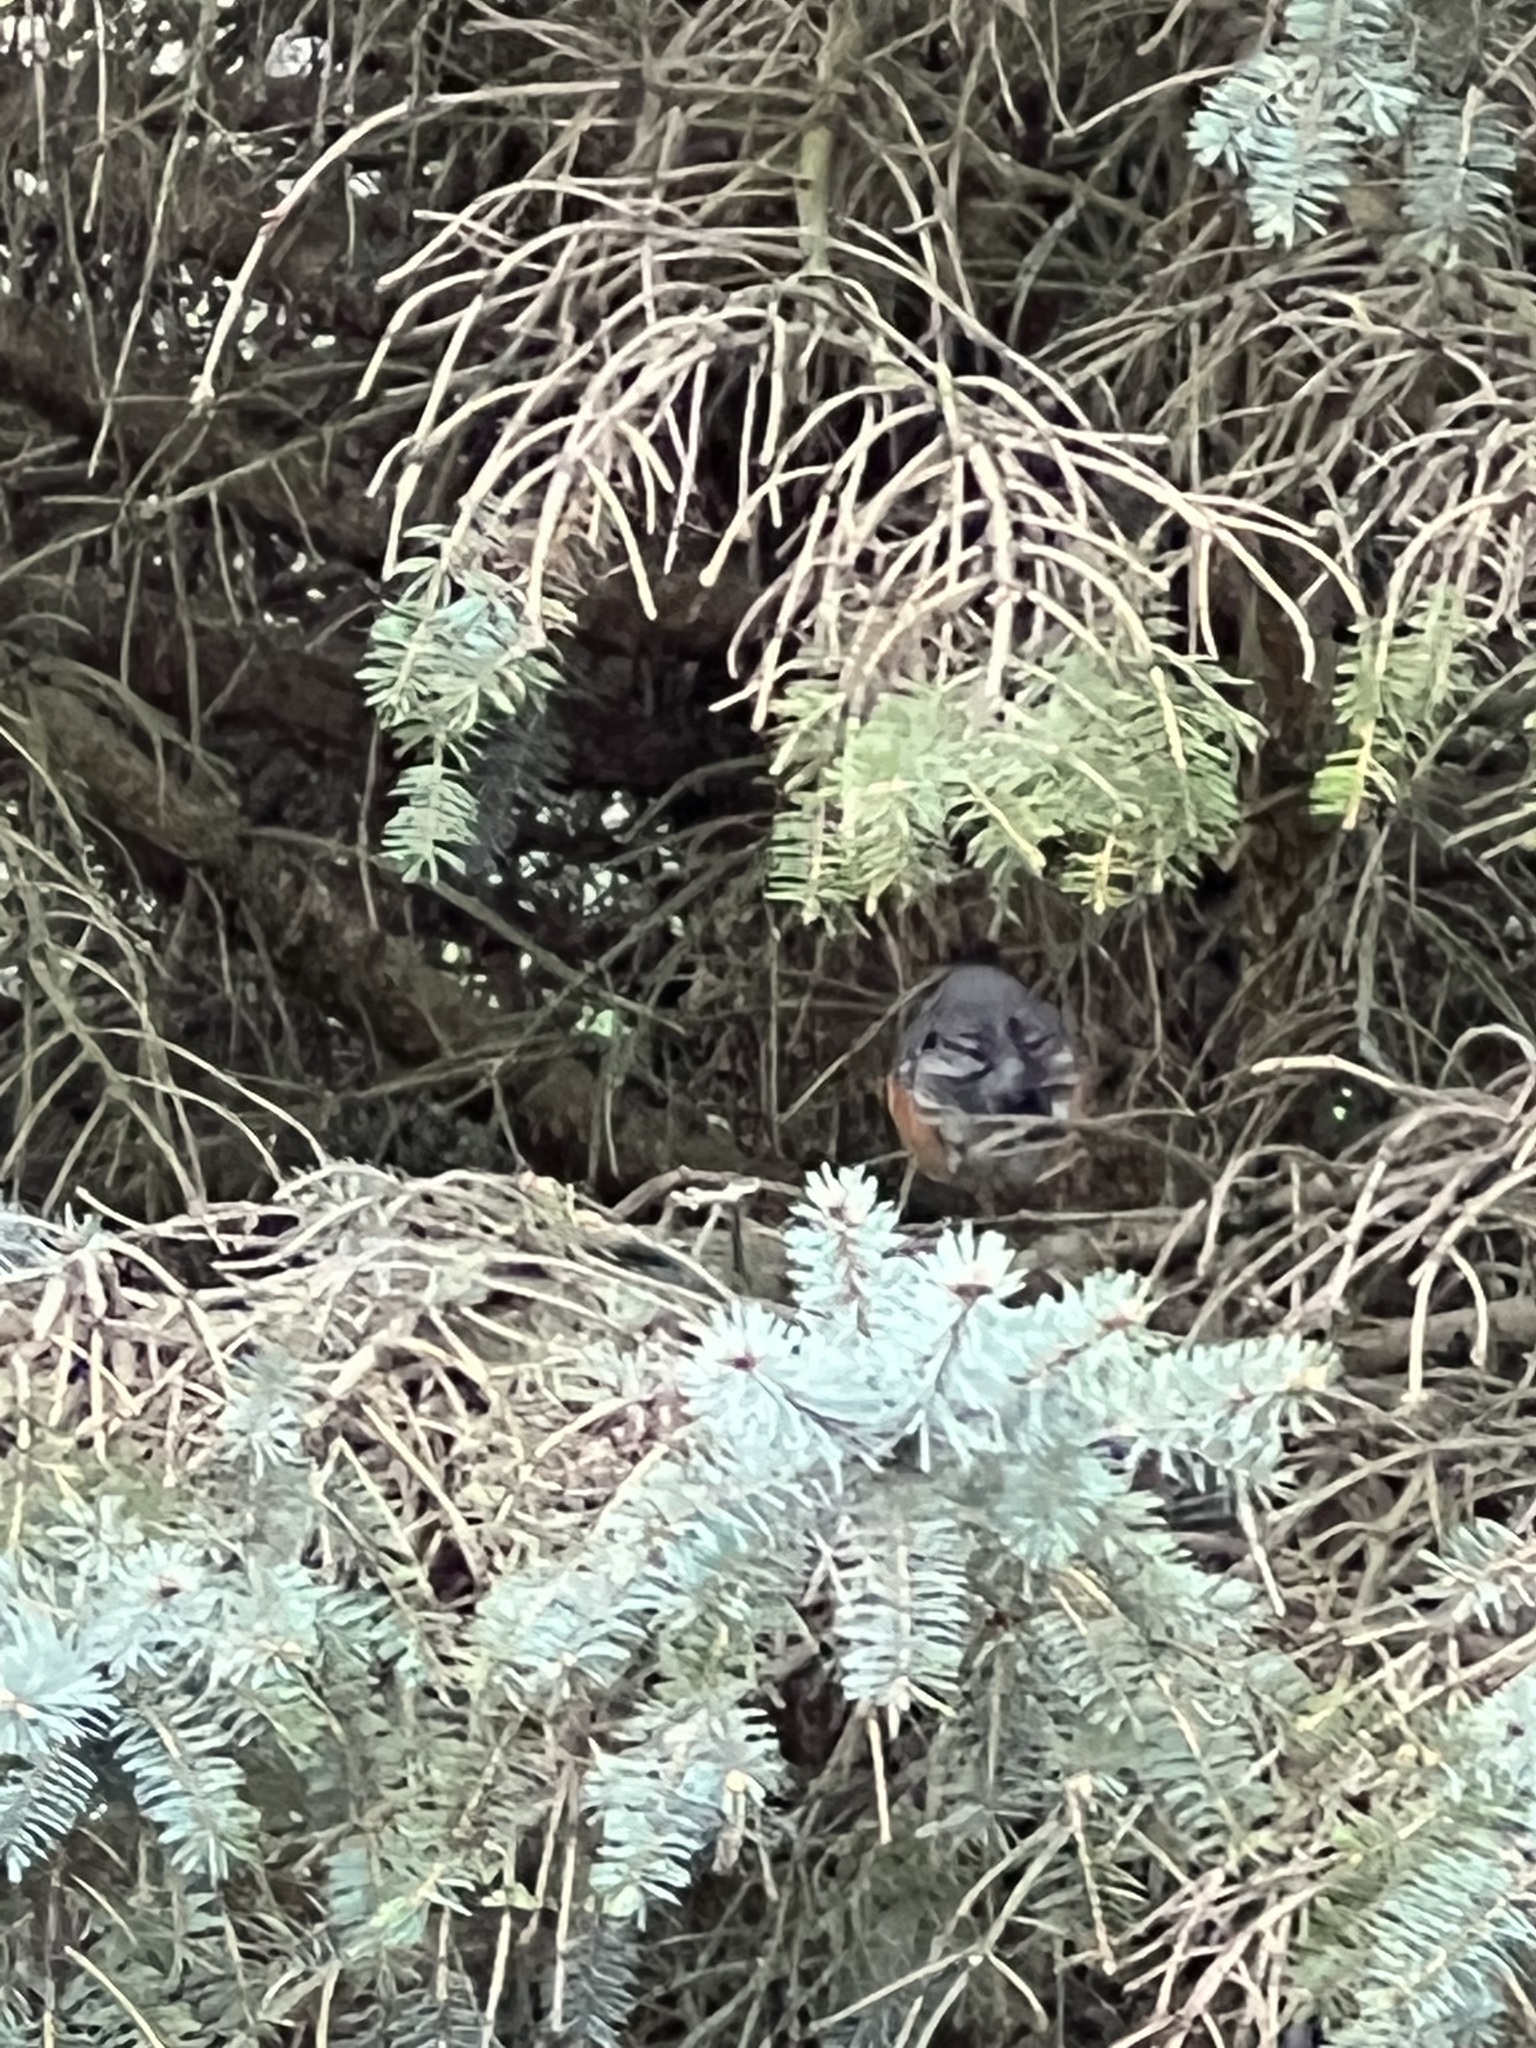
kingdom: Animalia
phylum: Chordata
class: Aves
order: Passeriformes
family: Turdidae
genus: Turdus
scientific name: Turdus migratorius
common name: American robin
